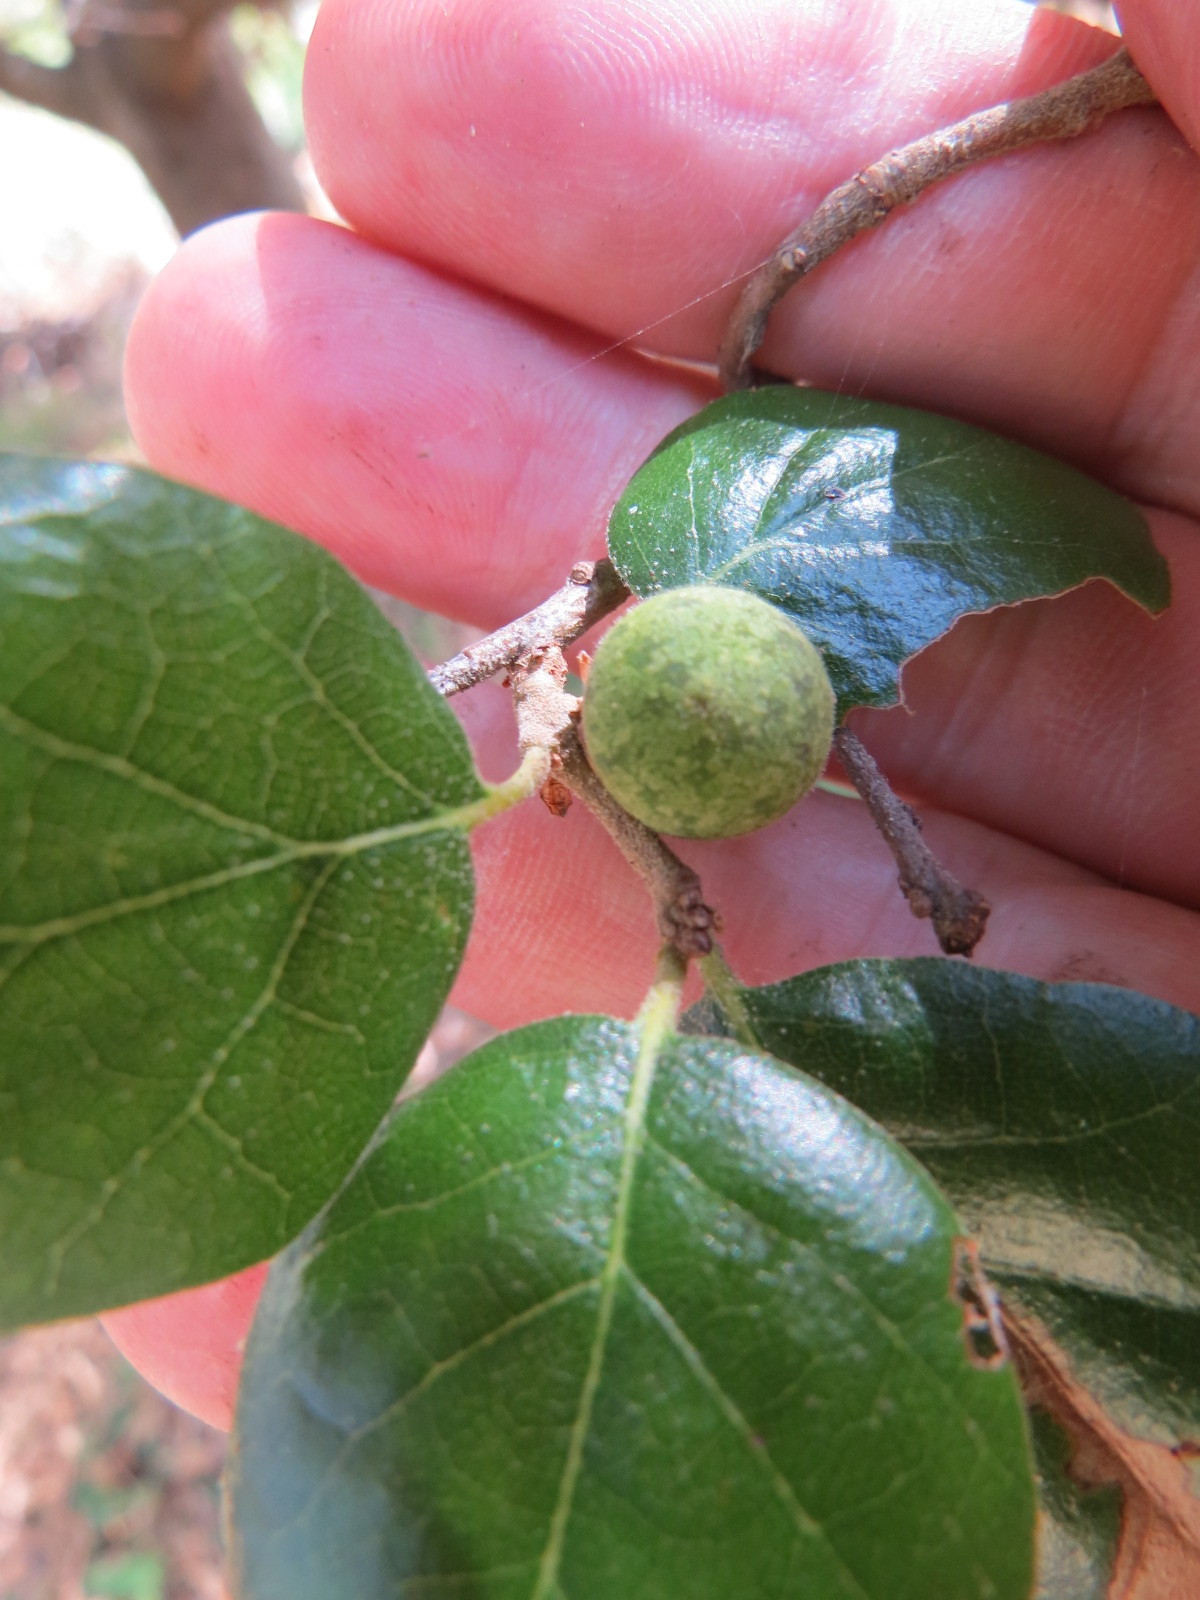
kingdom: Animalia
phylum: Arthropoda
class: Insecta
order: Hymenoptera
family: Cynipidae
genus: Callirhytis
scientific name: Callirhytis
